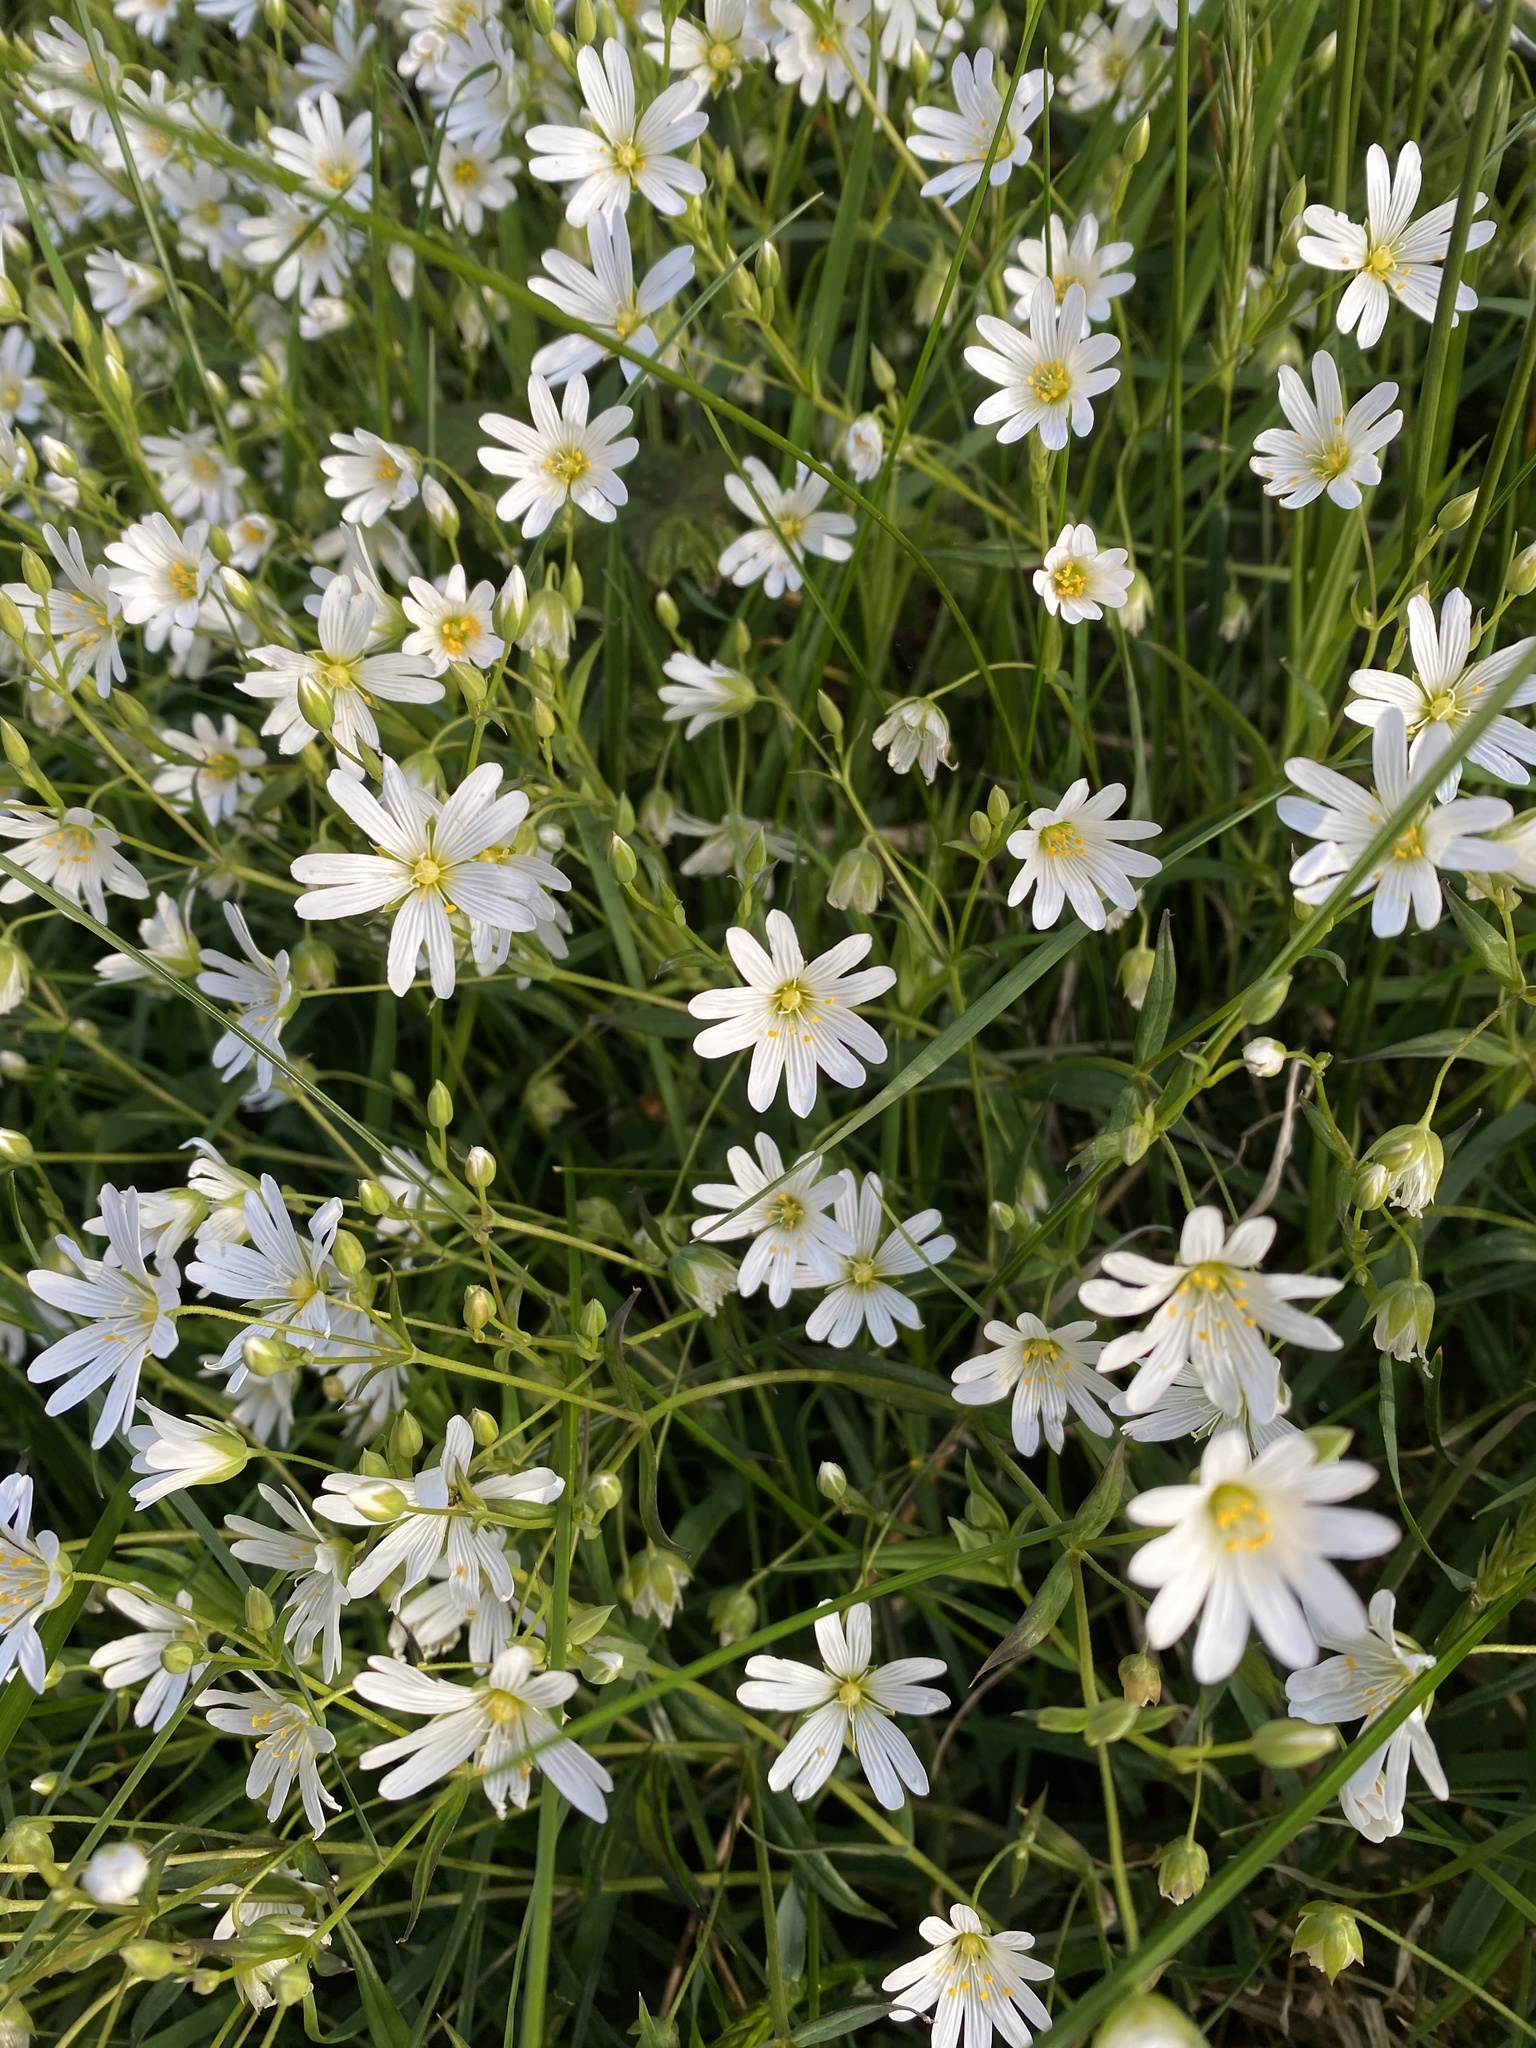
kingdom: Plantae
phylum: Tracheophyta
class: Magnoliopsida
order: Caryophyllales
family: Caryophyllaceae
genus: Rabelera
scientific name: Rabelera holostea
